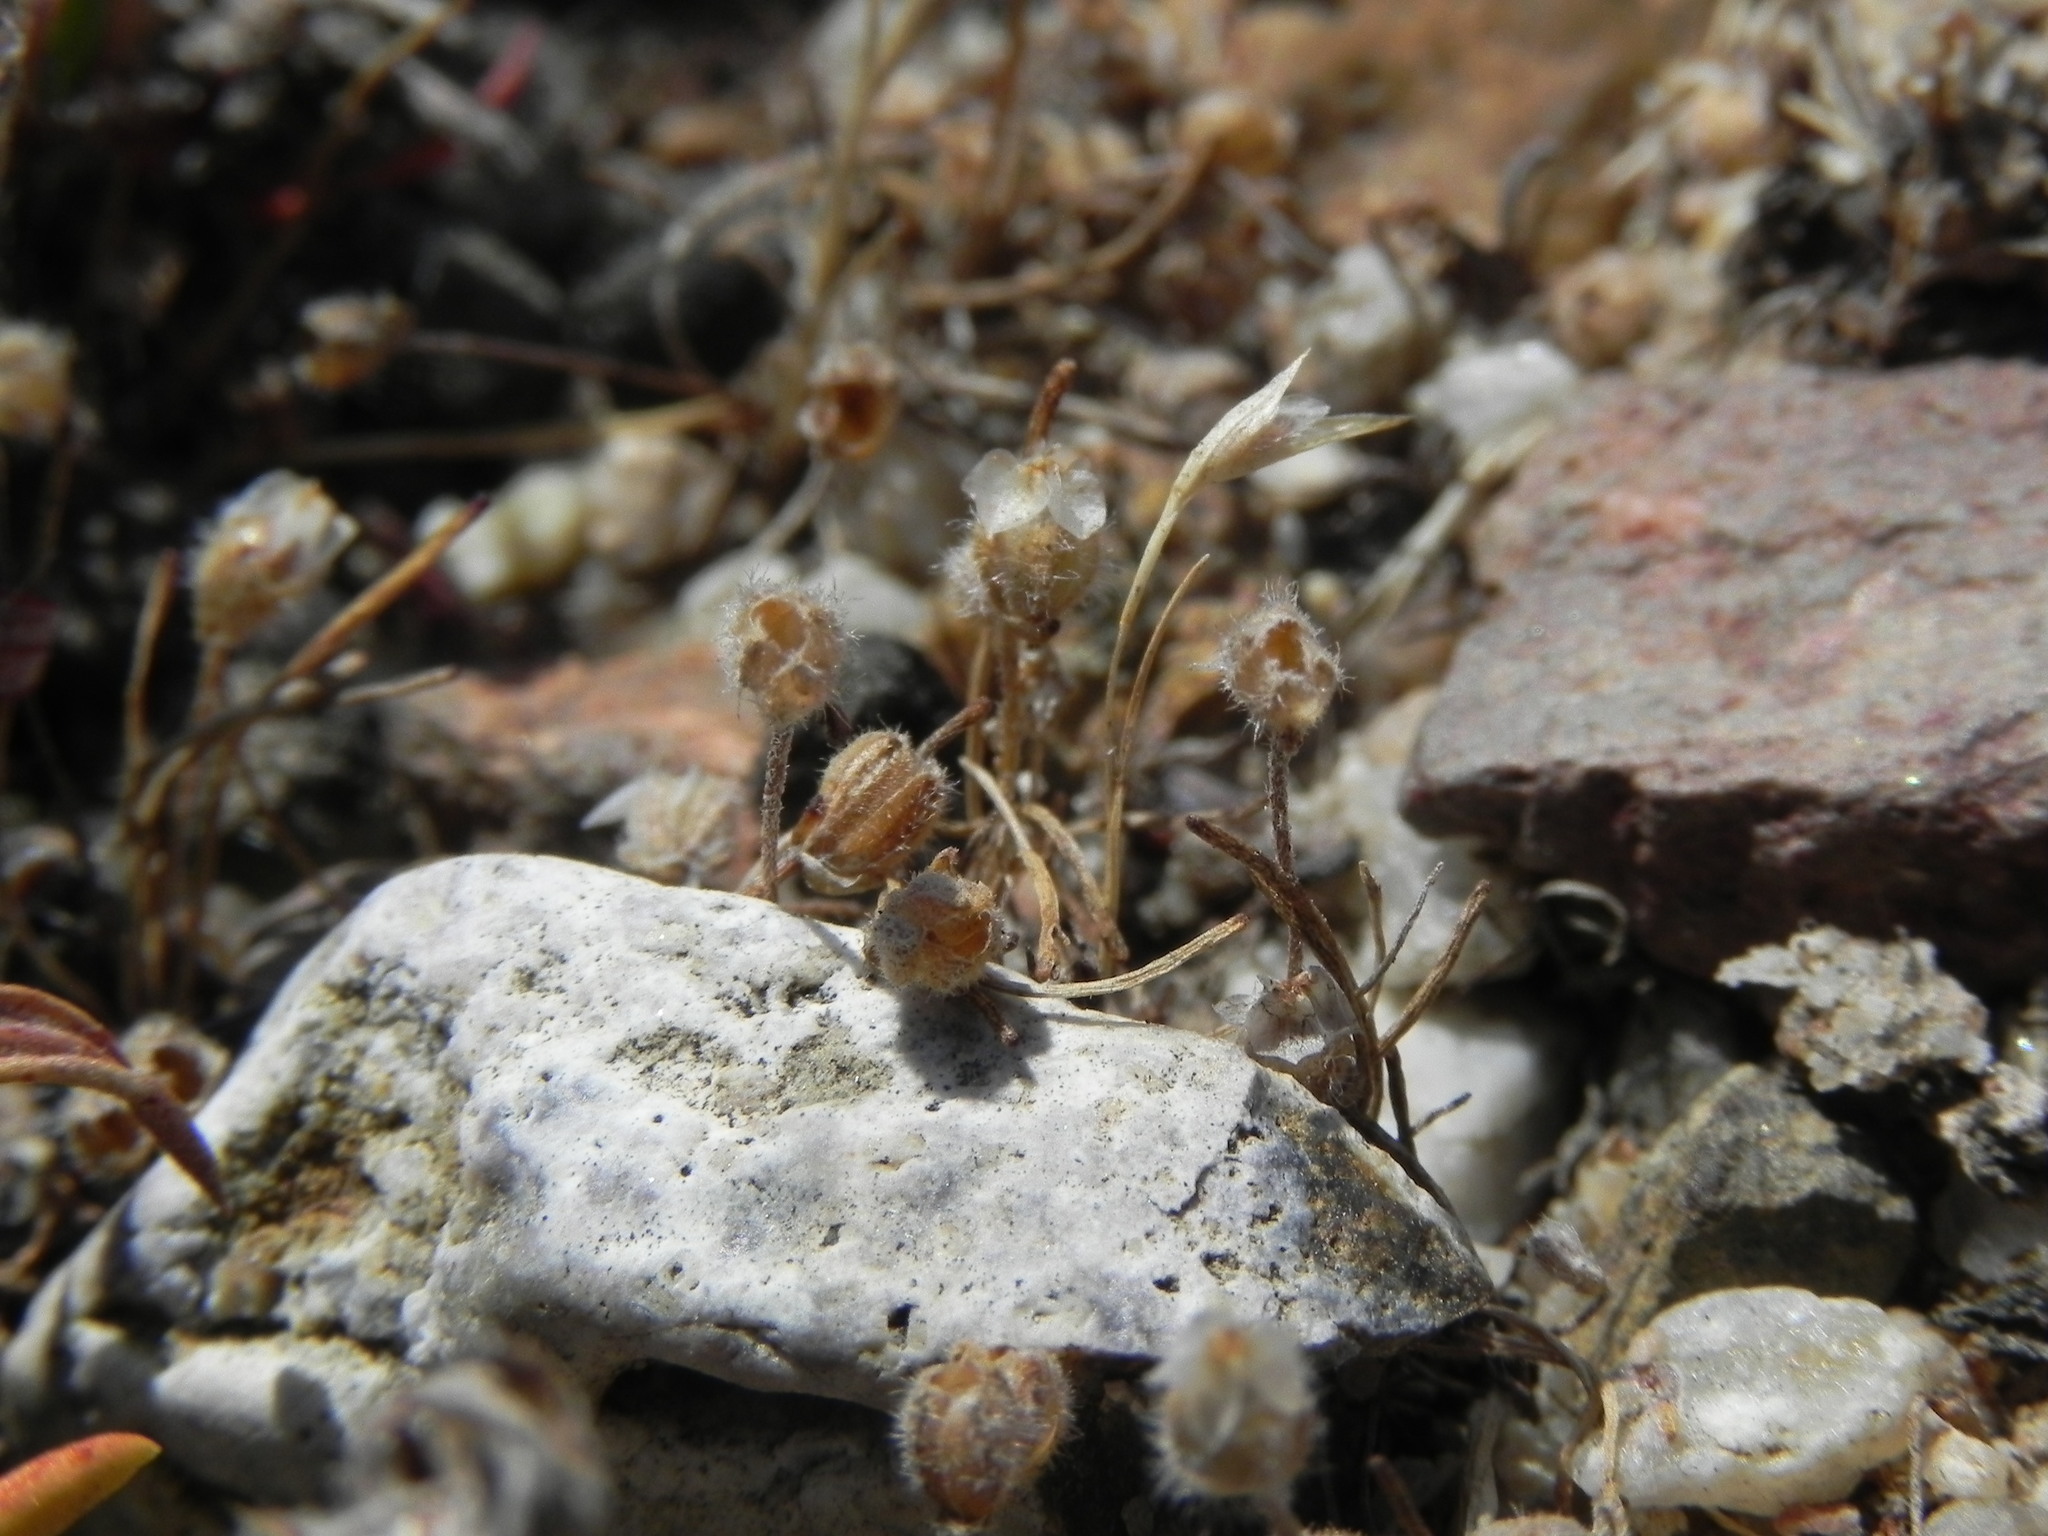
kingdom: Plantae
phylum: Tracheophyta
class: Magnoliopsida
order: Lamiales
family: Plantaginaceae
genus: Plantago
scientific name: Plantago erecta
